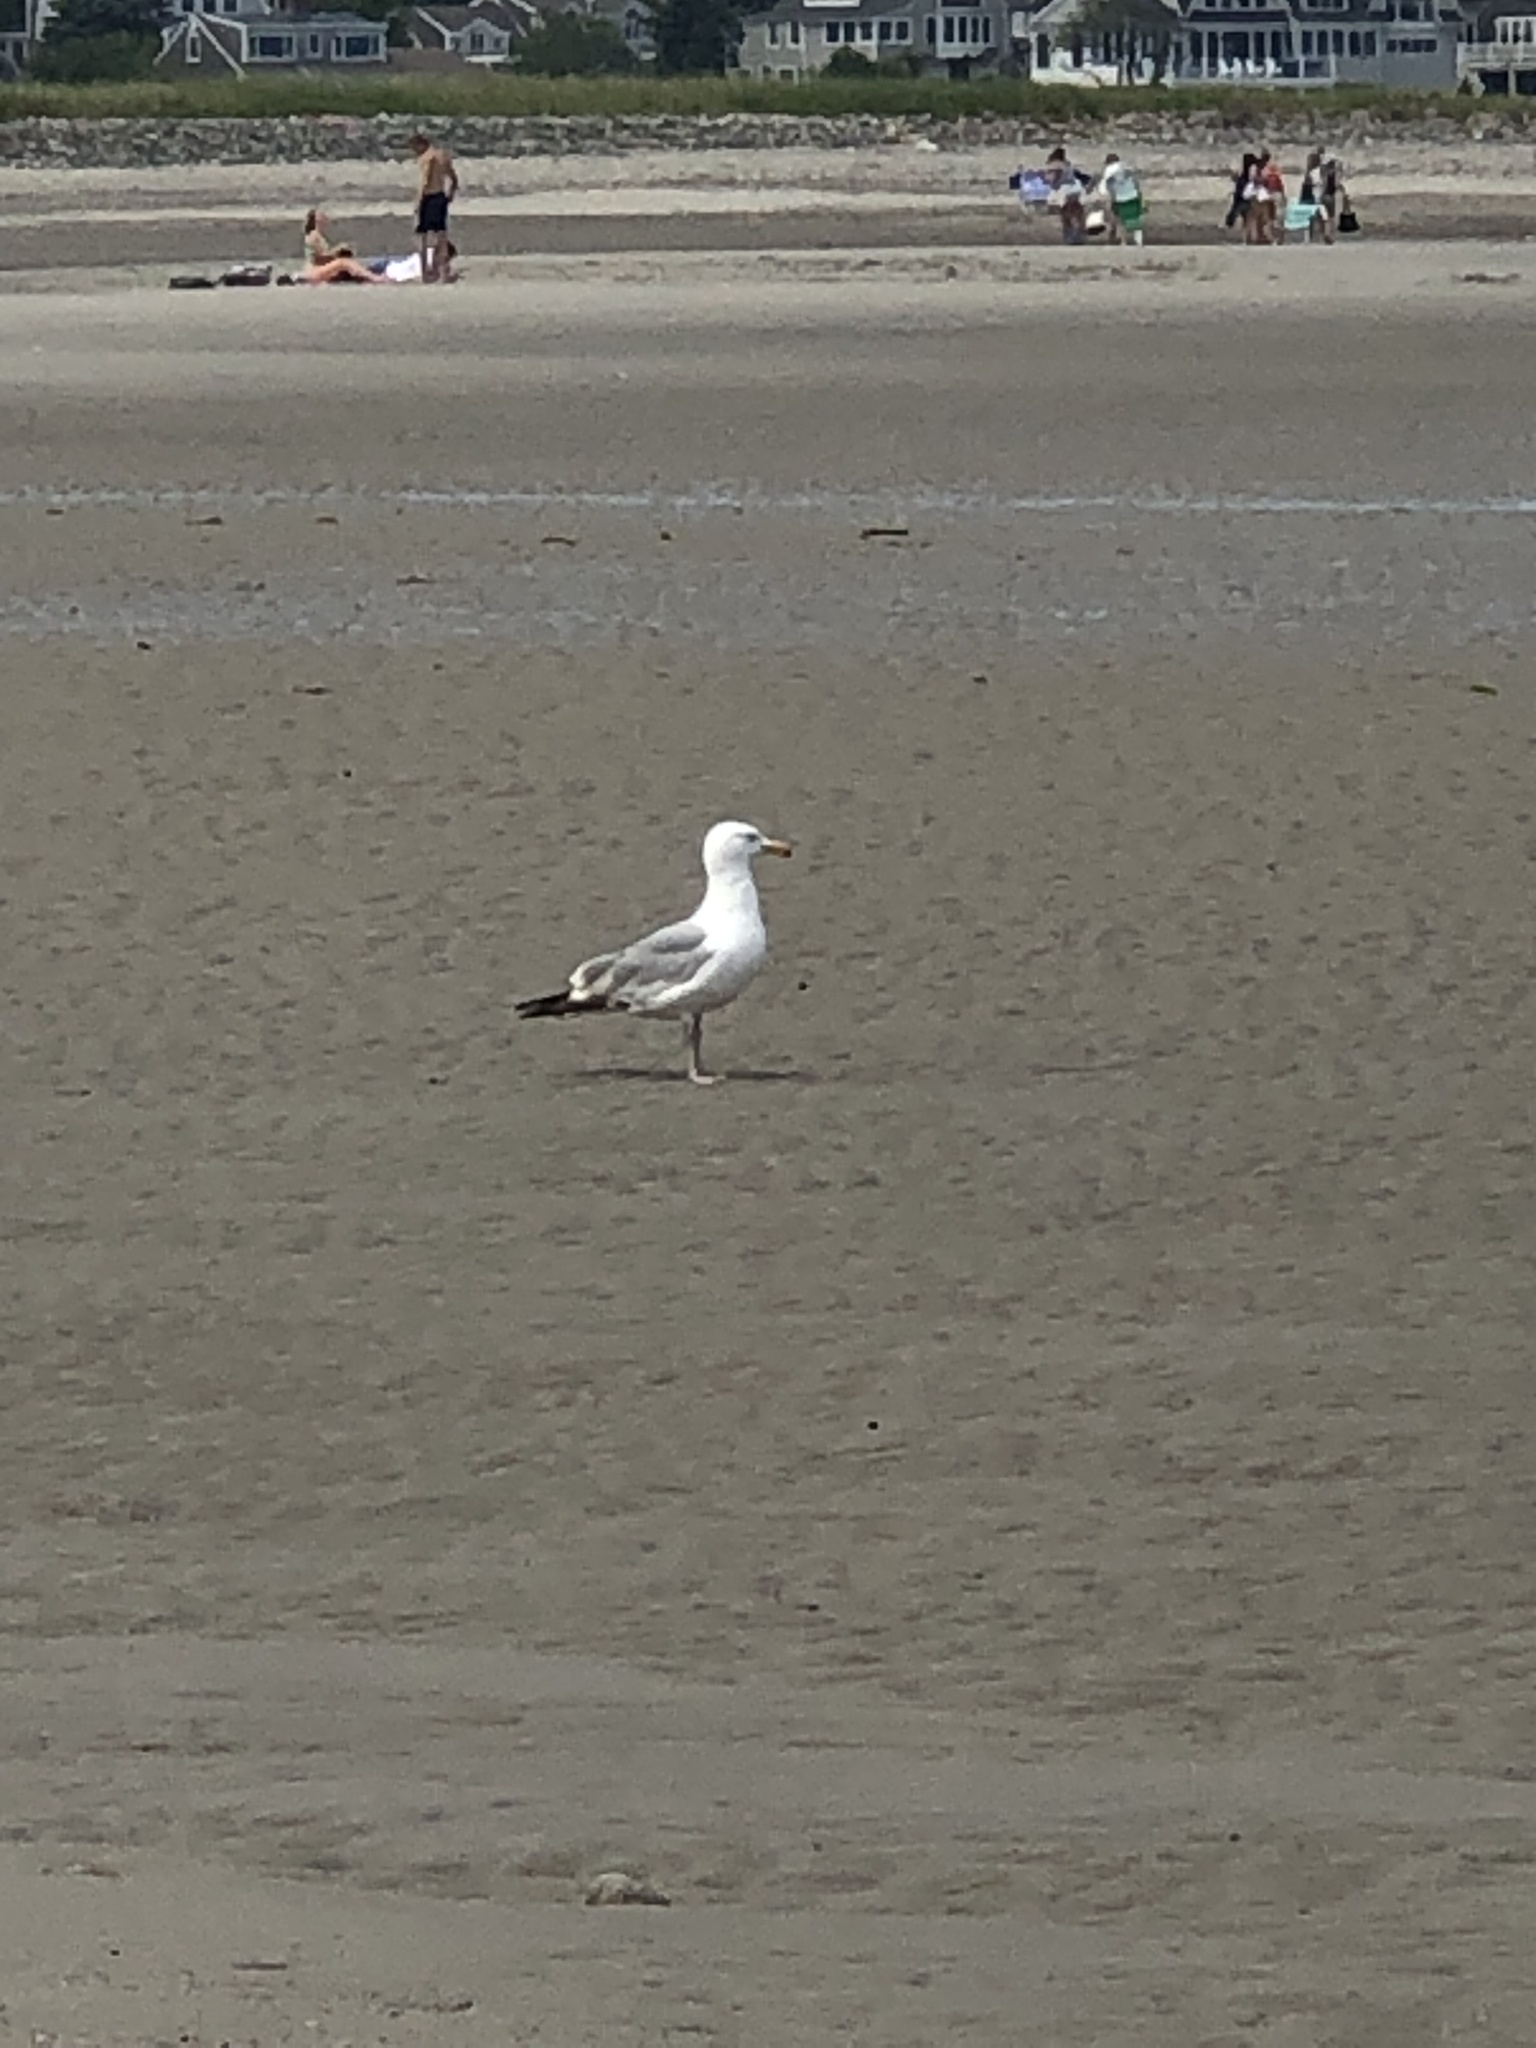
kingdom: Animalia
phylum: Chordata
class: Aves
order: Charadriiformes
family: Laridae
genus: Larus
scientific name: Larus argentatus
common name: Herring gull
